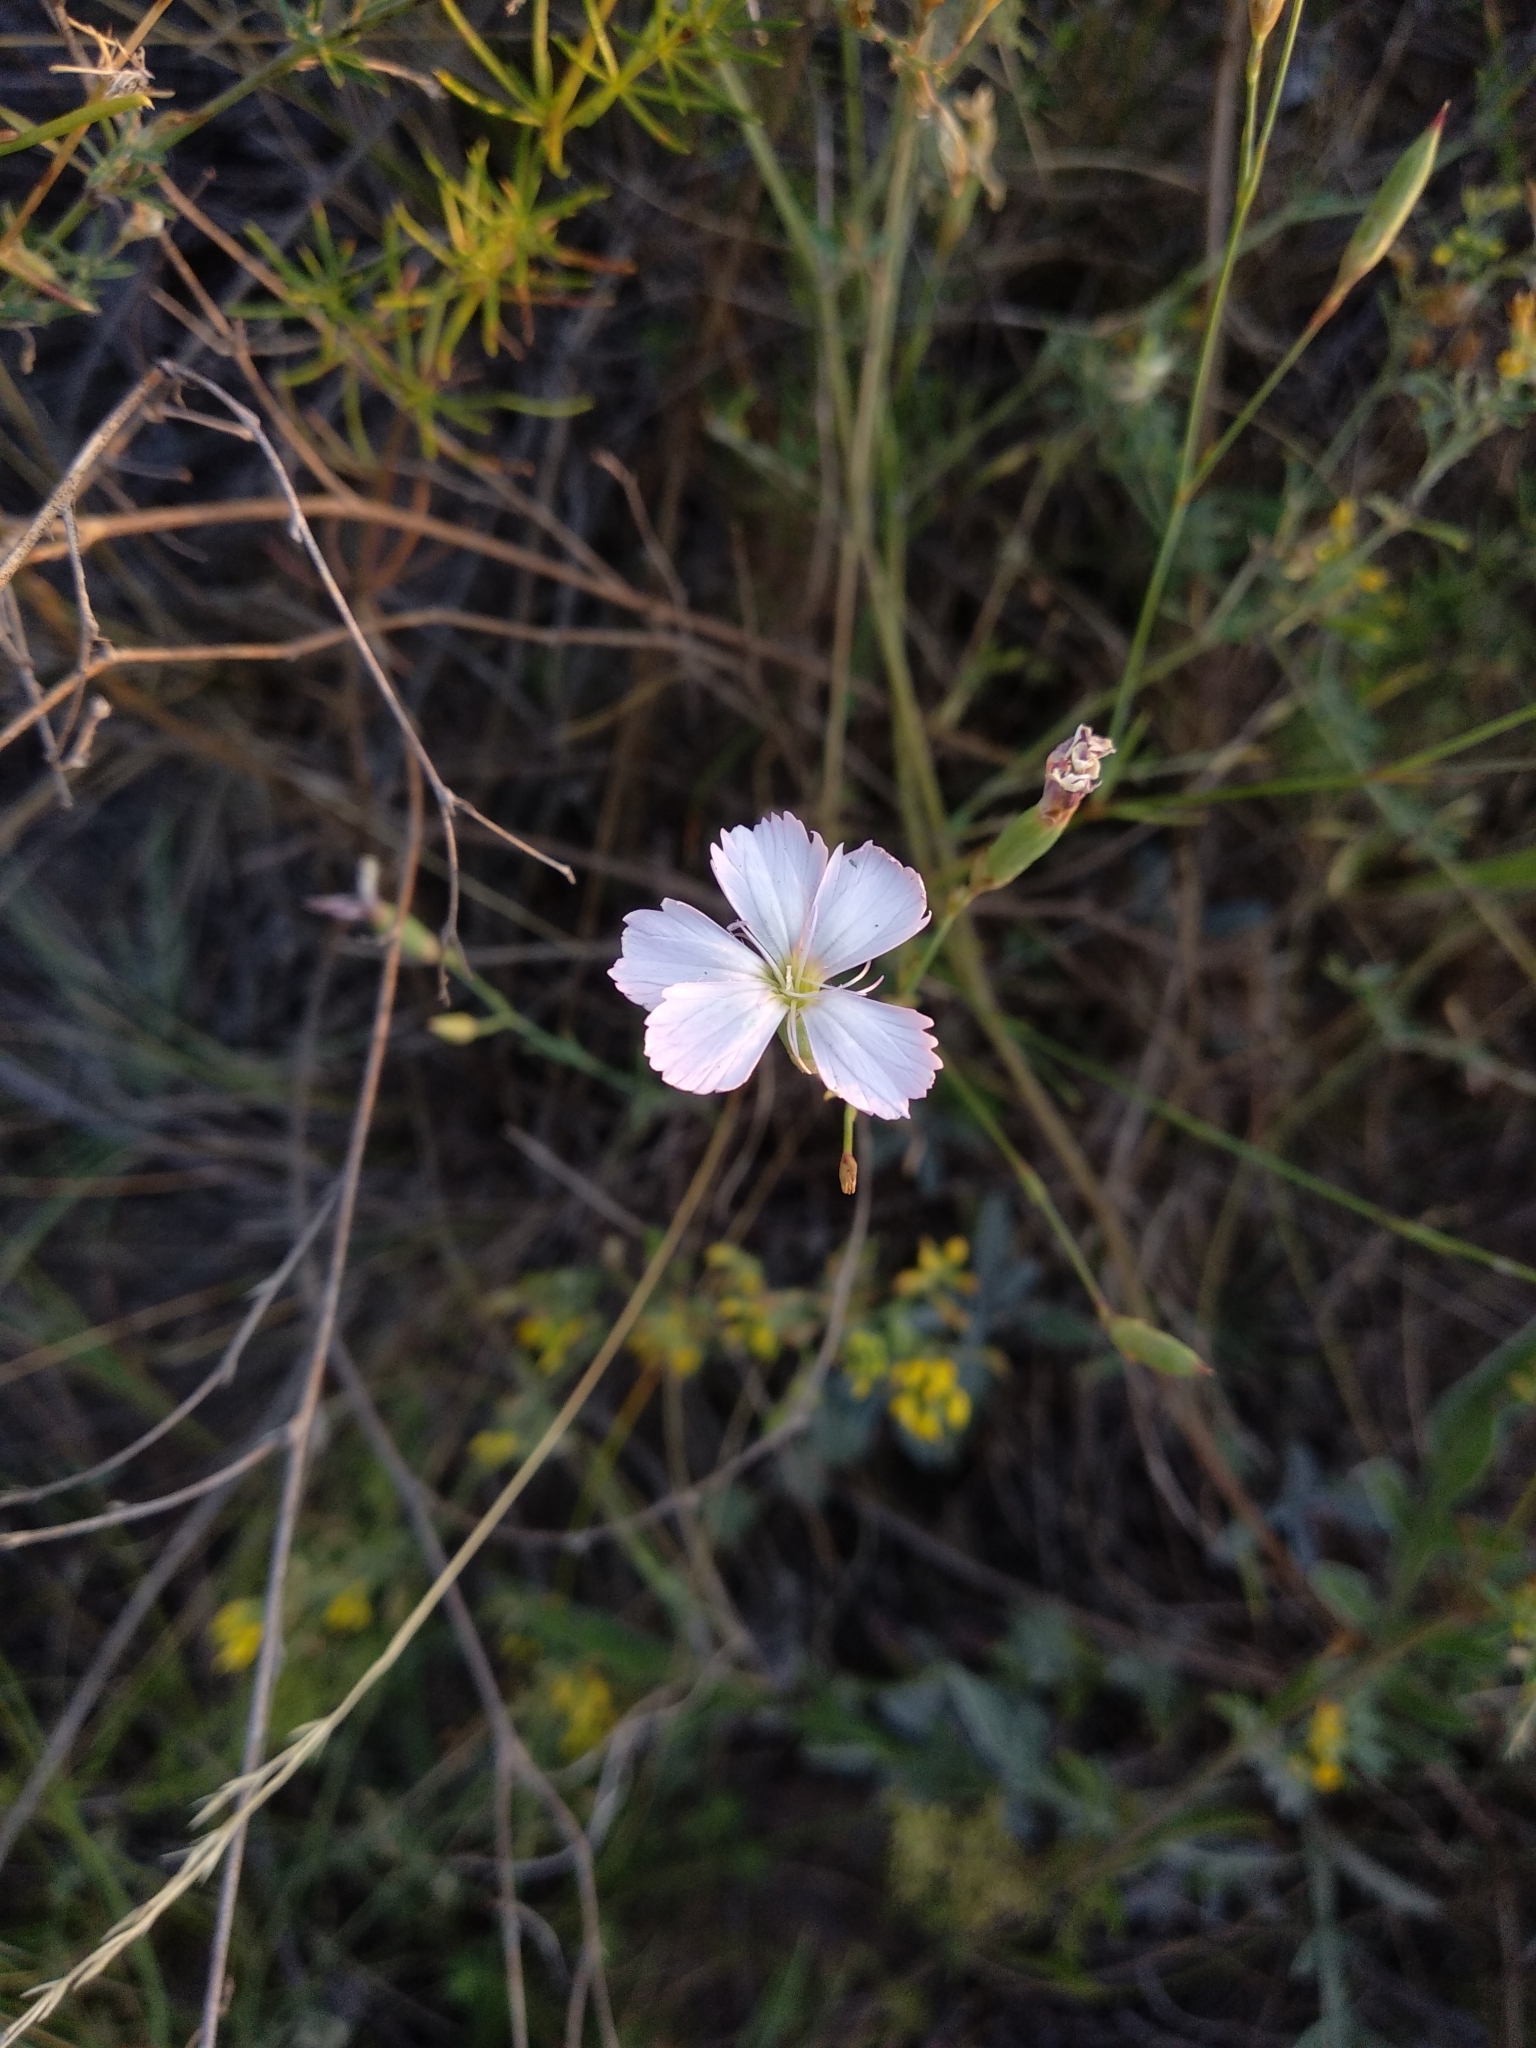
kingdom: Plantae
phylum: Tracheophyta
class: Magnoliopsida
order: Caryophyllales
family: Caryophyllaceae
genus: Dianthus
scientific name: Dianthus ramosissimus
